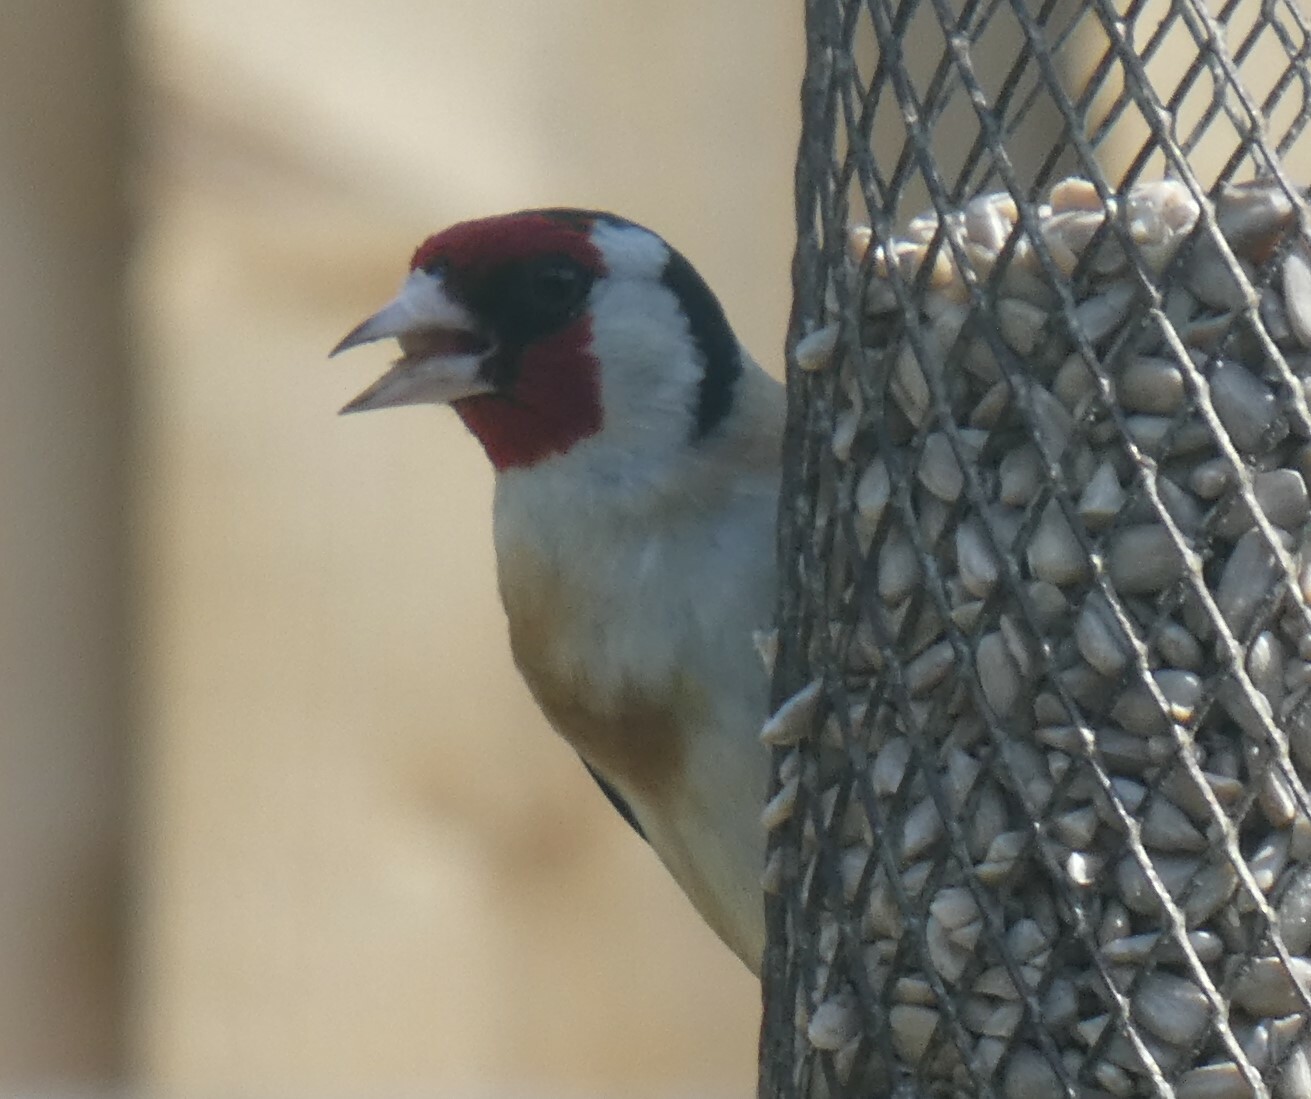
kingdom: Animalia
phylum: Chordata
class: Aves
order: Passeriformes
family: Fringillidae
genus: Carduelis
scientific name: Carduelis carduelis
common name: European goldfinch
